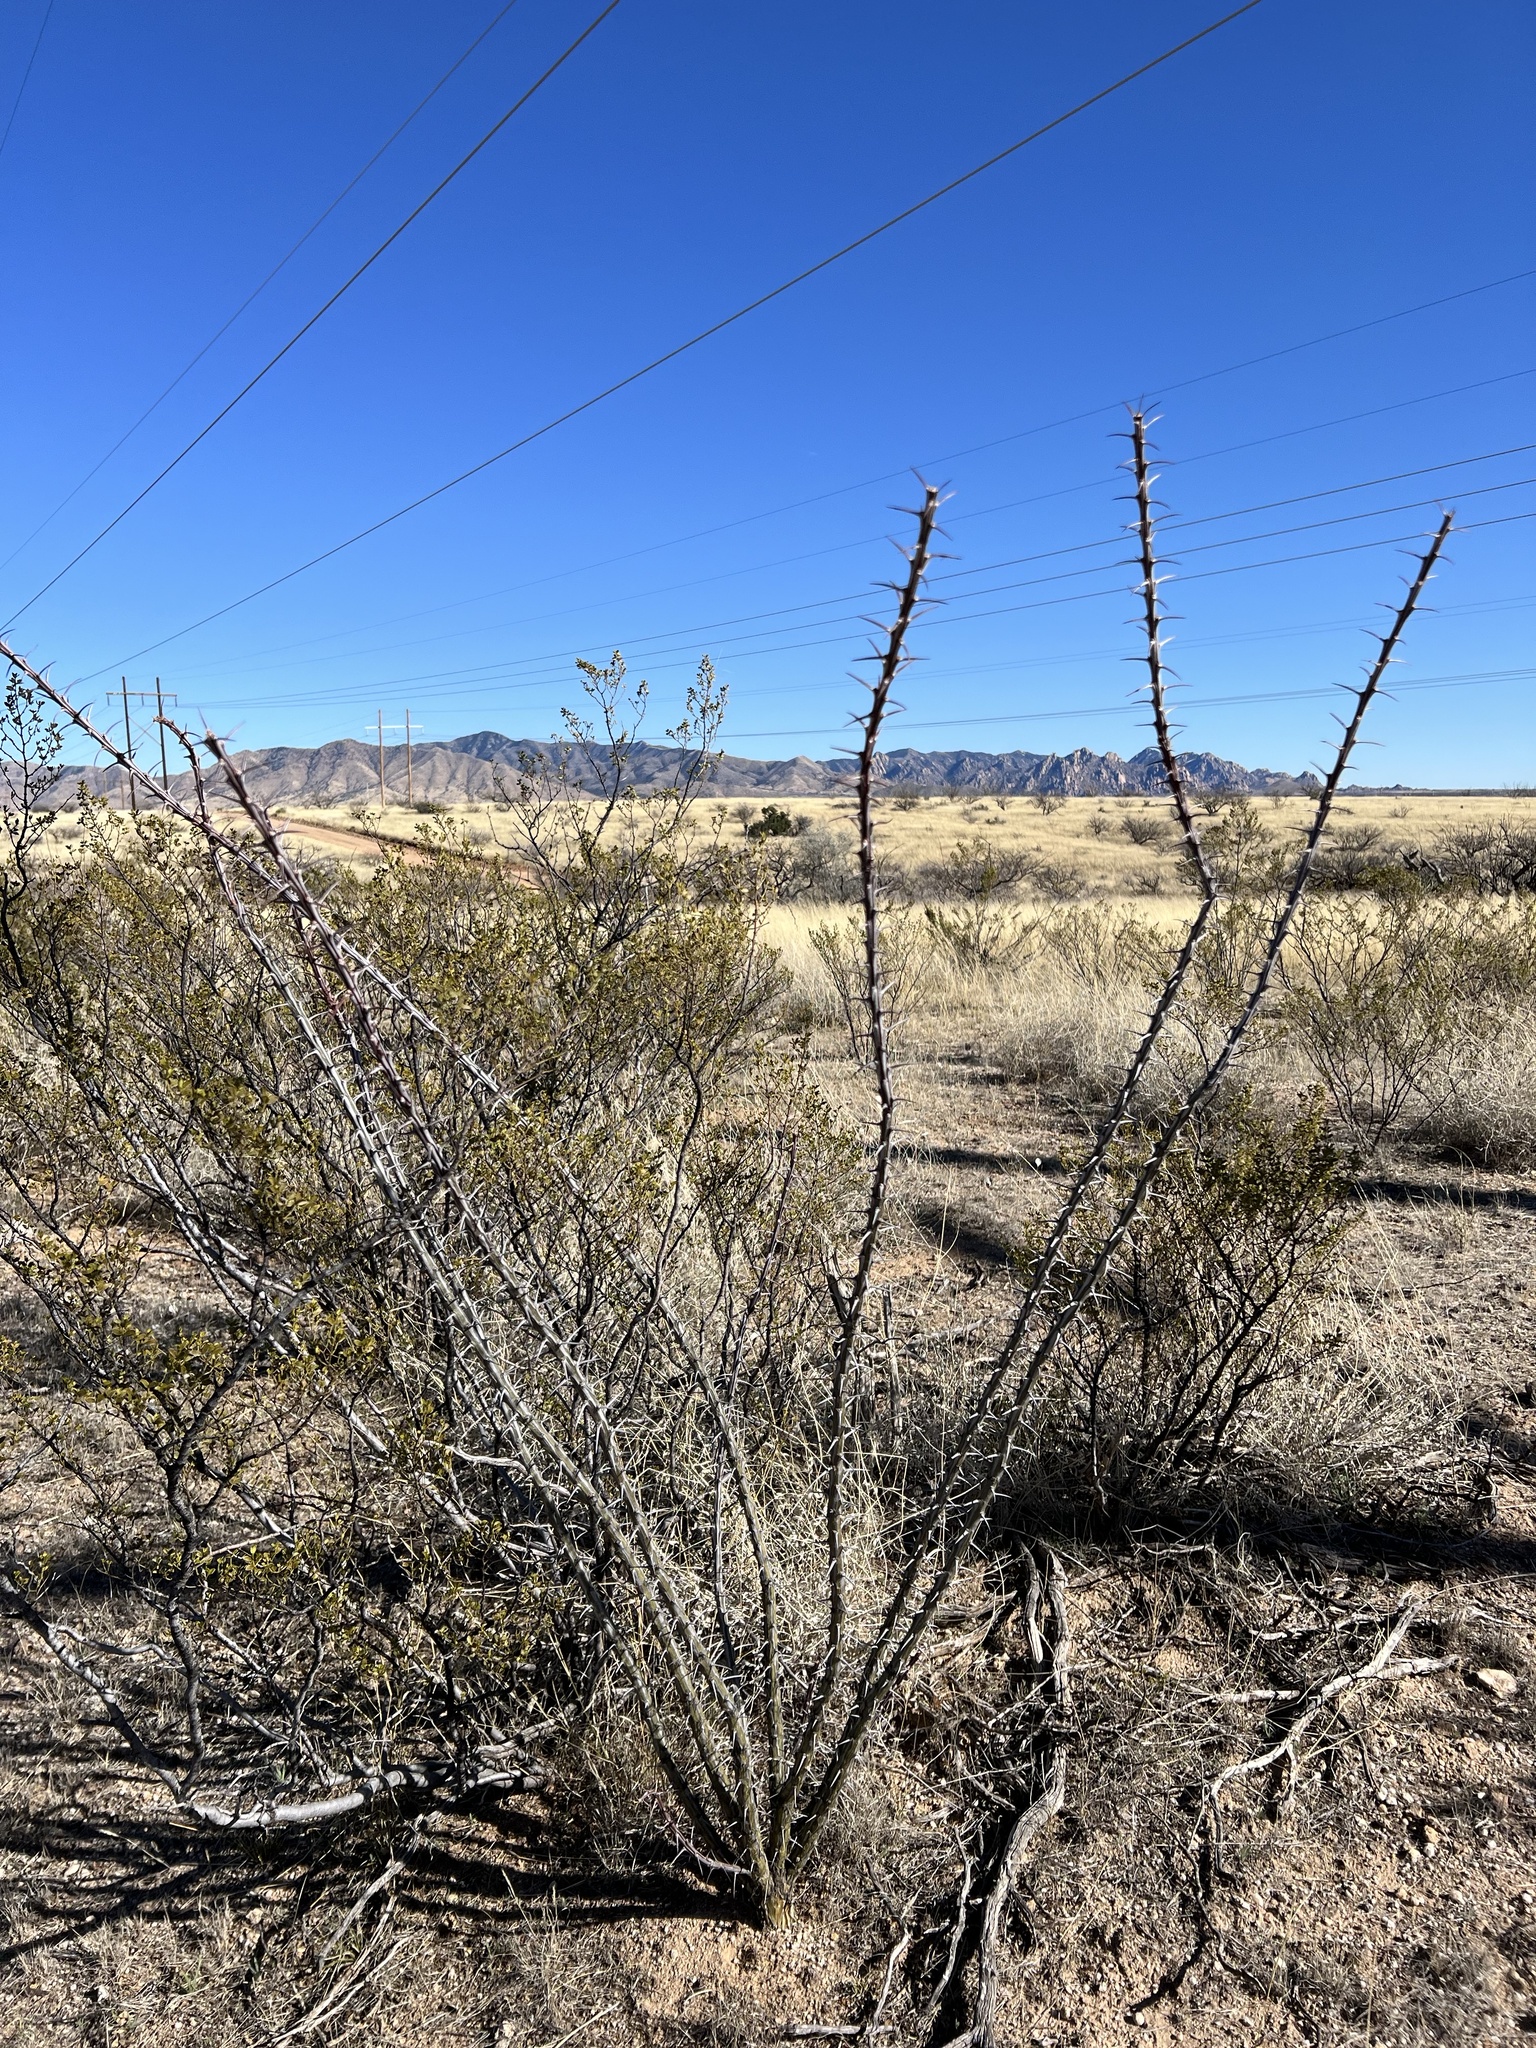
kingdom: Plantae
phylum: Tracheophyta
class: Magnoliopsida
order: Ericales
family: Fouquieriaceae
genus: Fouquieria
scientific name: Fouquieria splendens
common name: Vine-cactus
